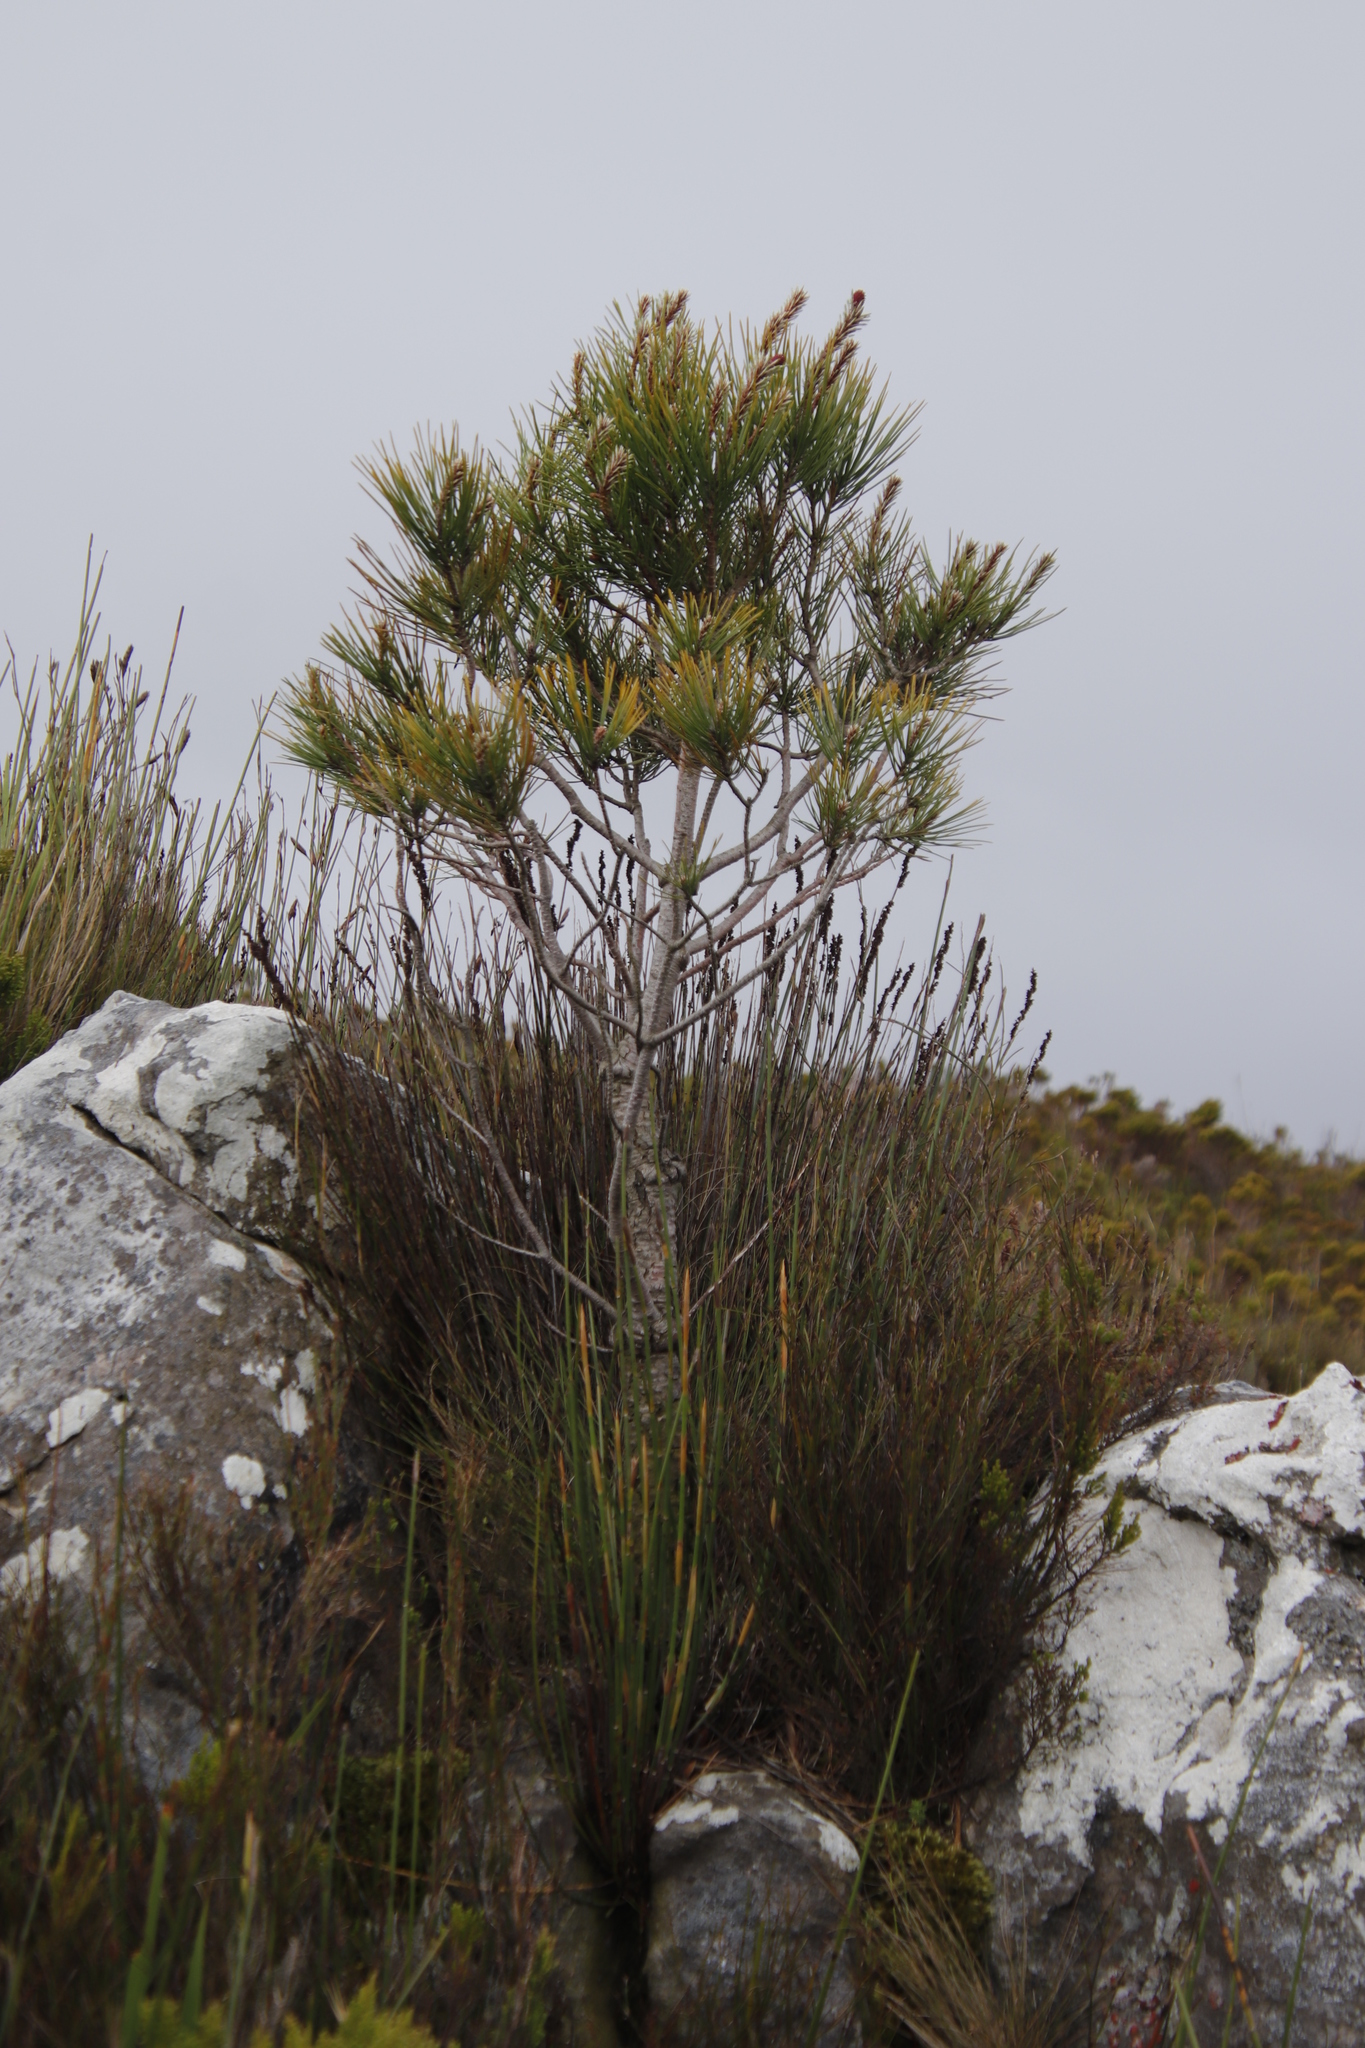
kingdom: Plantae
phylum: Tracheophyta
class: Pinopsida
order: Pinales
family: Pinaceae
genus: Pinus
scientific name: Pinus pinaster
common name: Maritime pine
